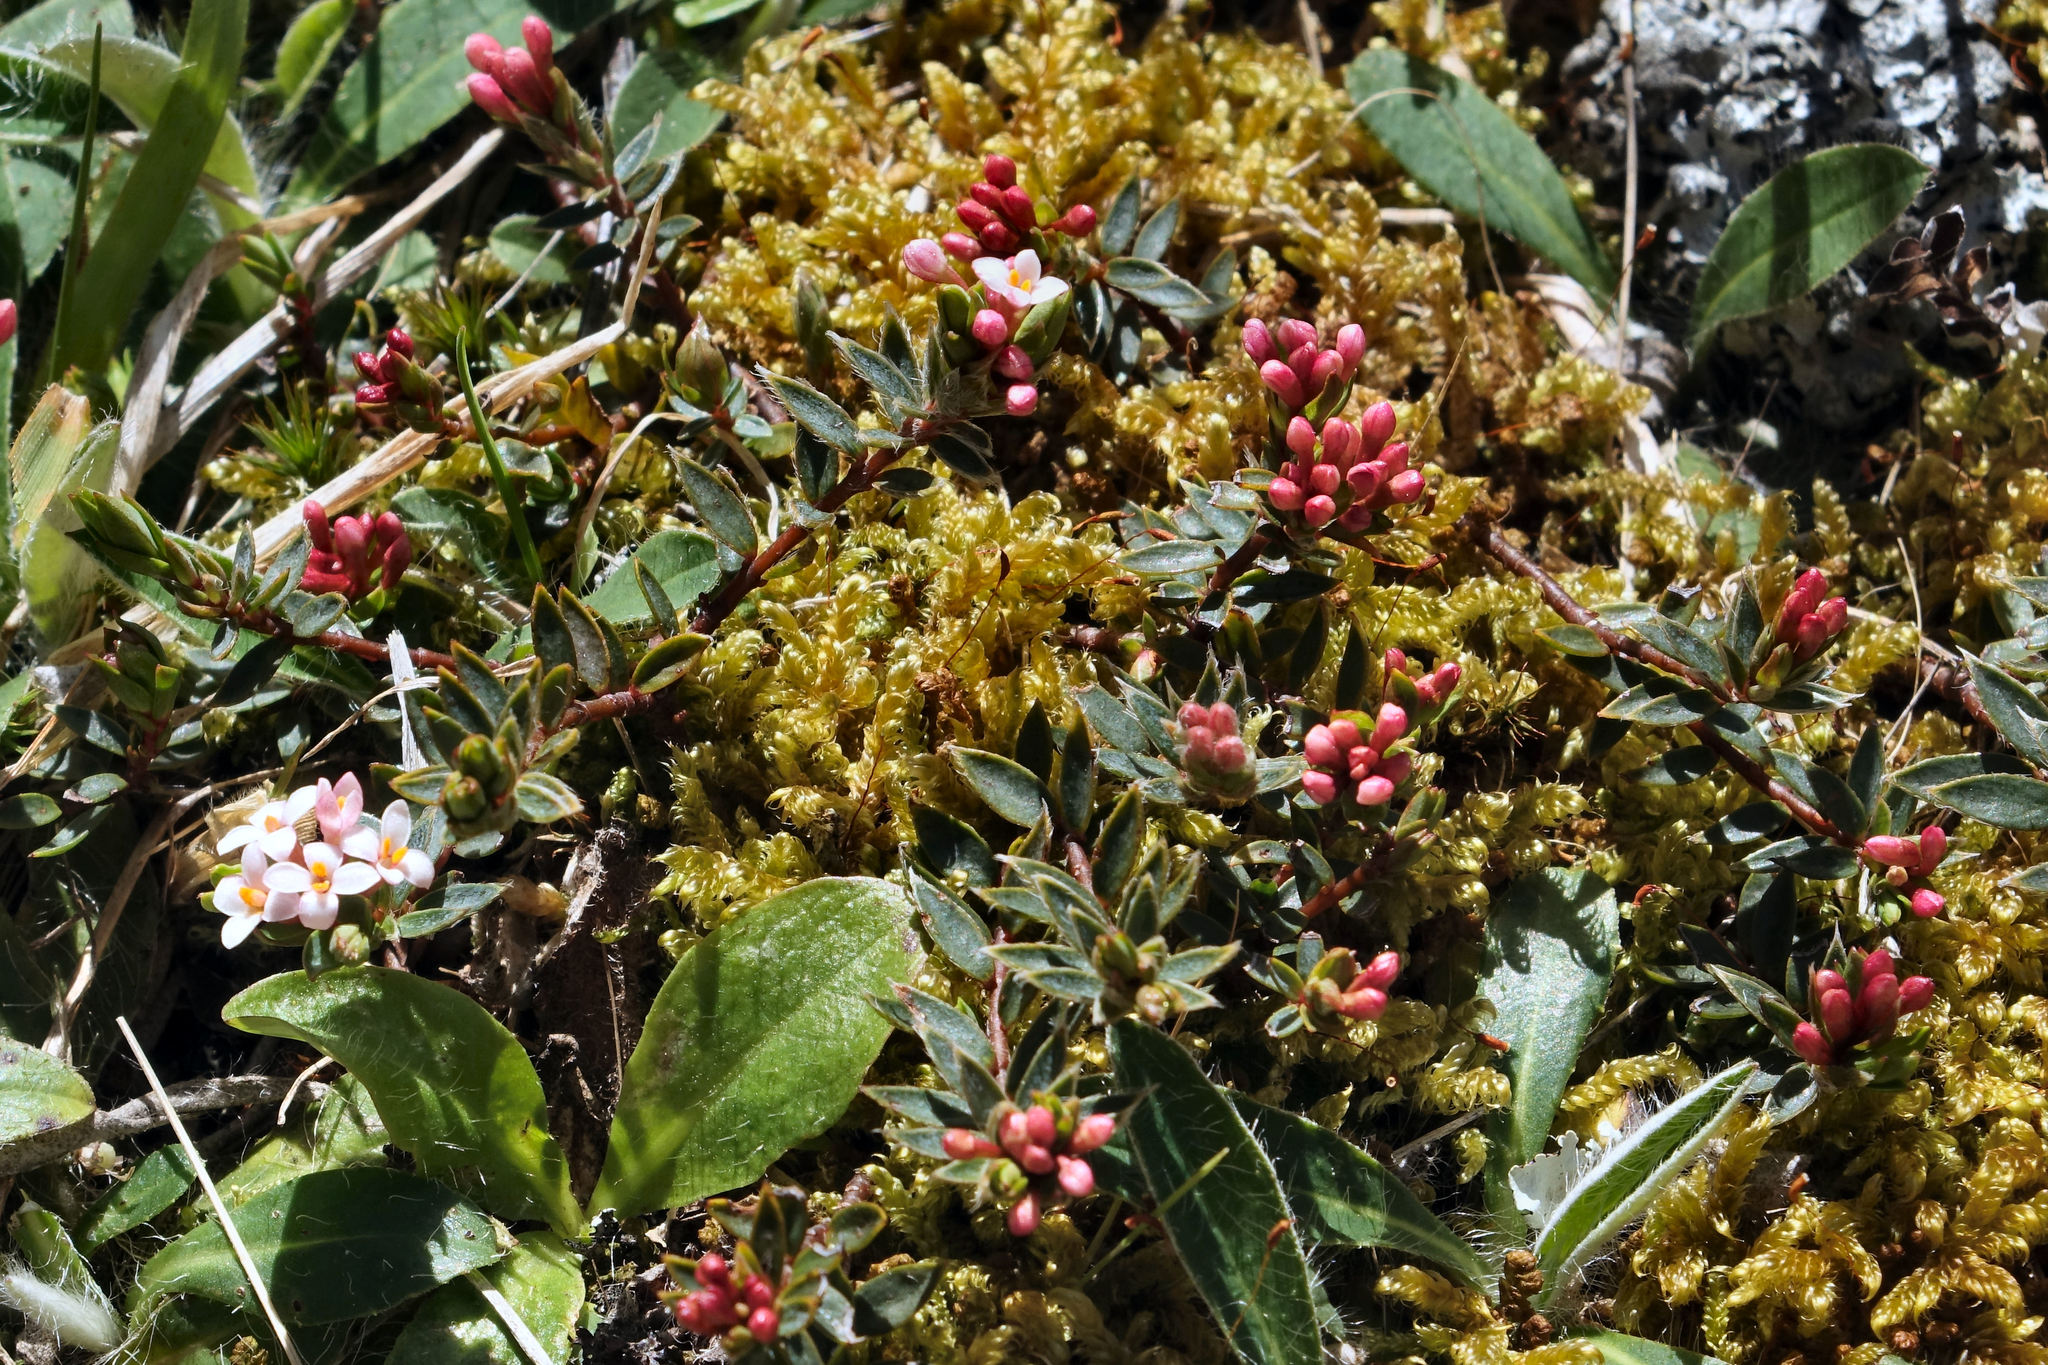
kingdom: Plantae
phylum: Tracheophyta
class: Magnoliopsida
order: Malvales
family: Thymelaeaceae
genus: Pimelea
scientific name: Pimelea oreophila
